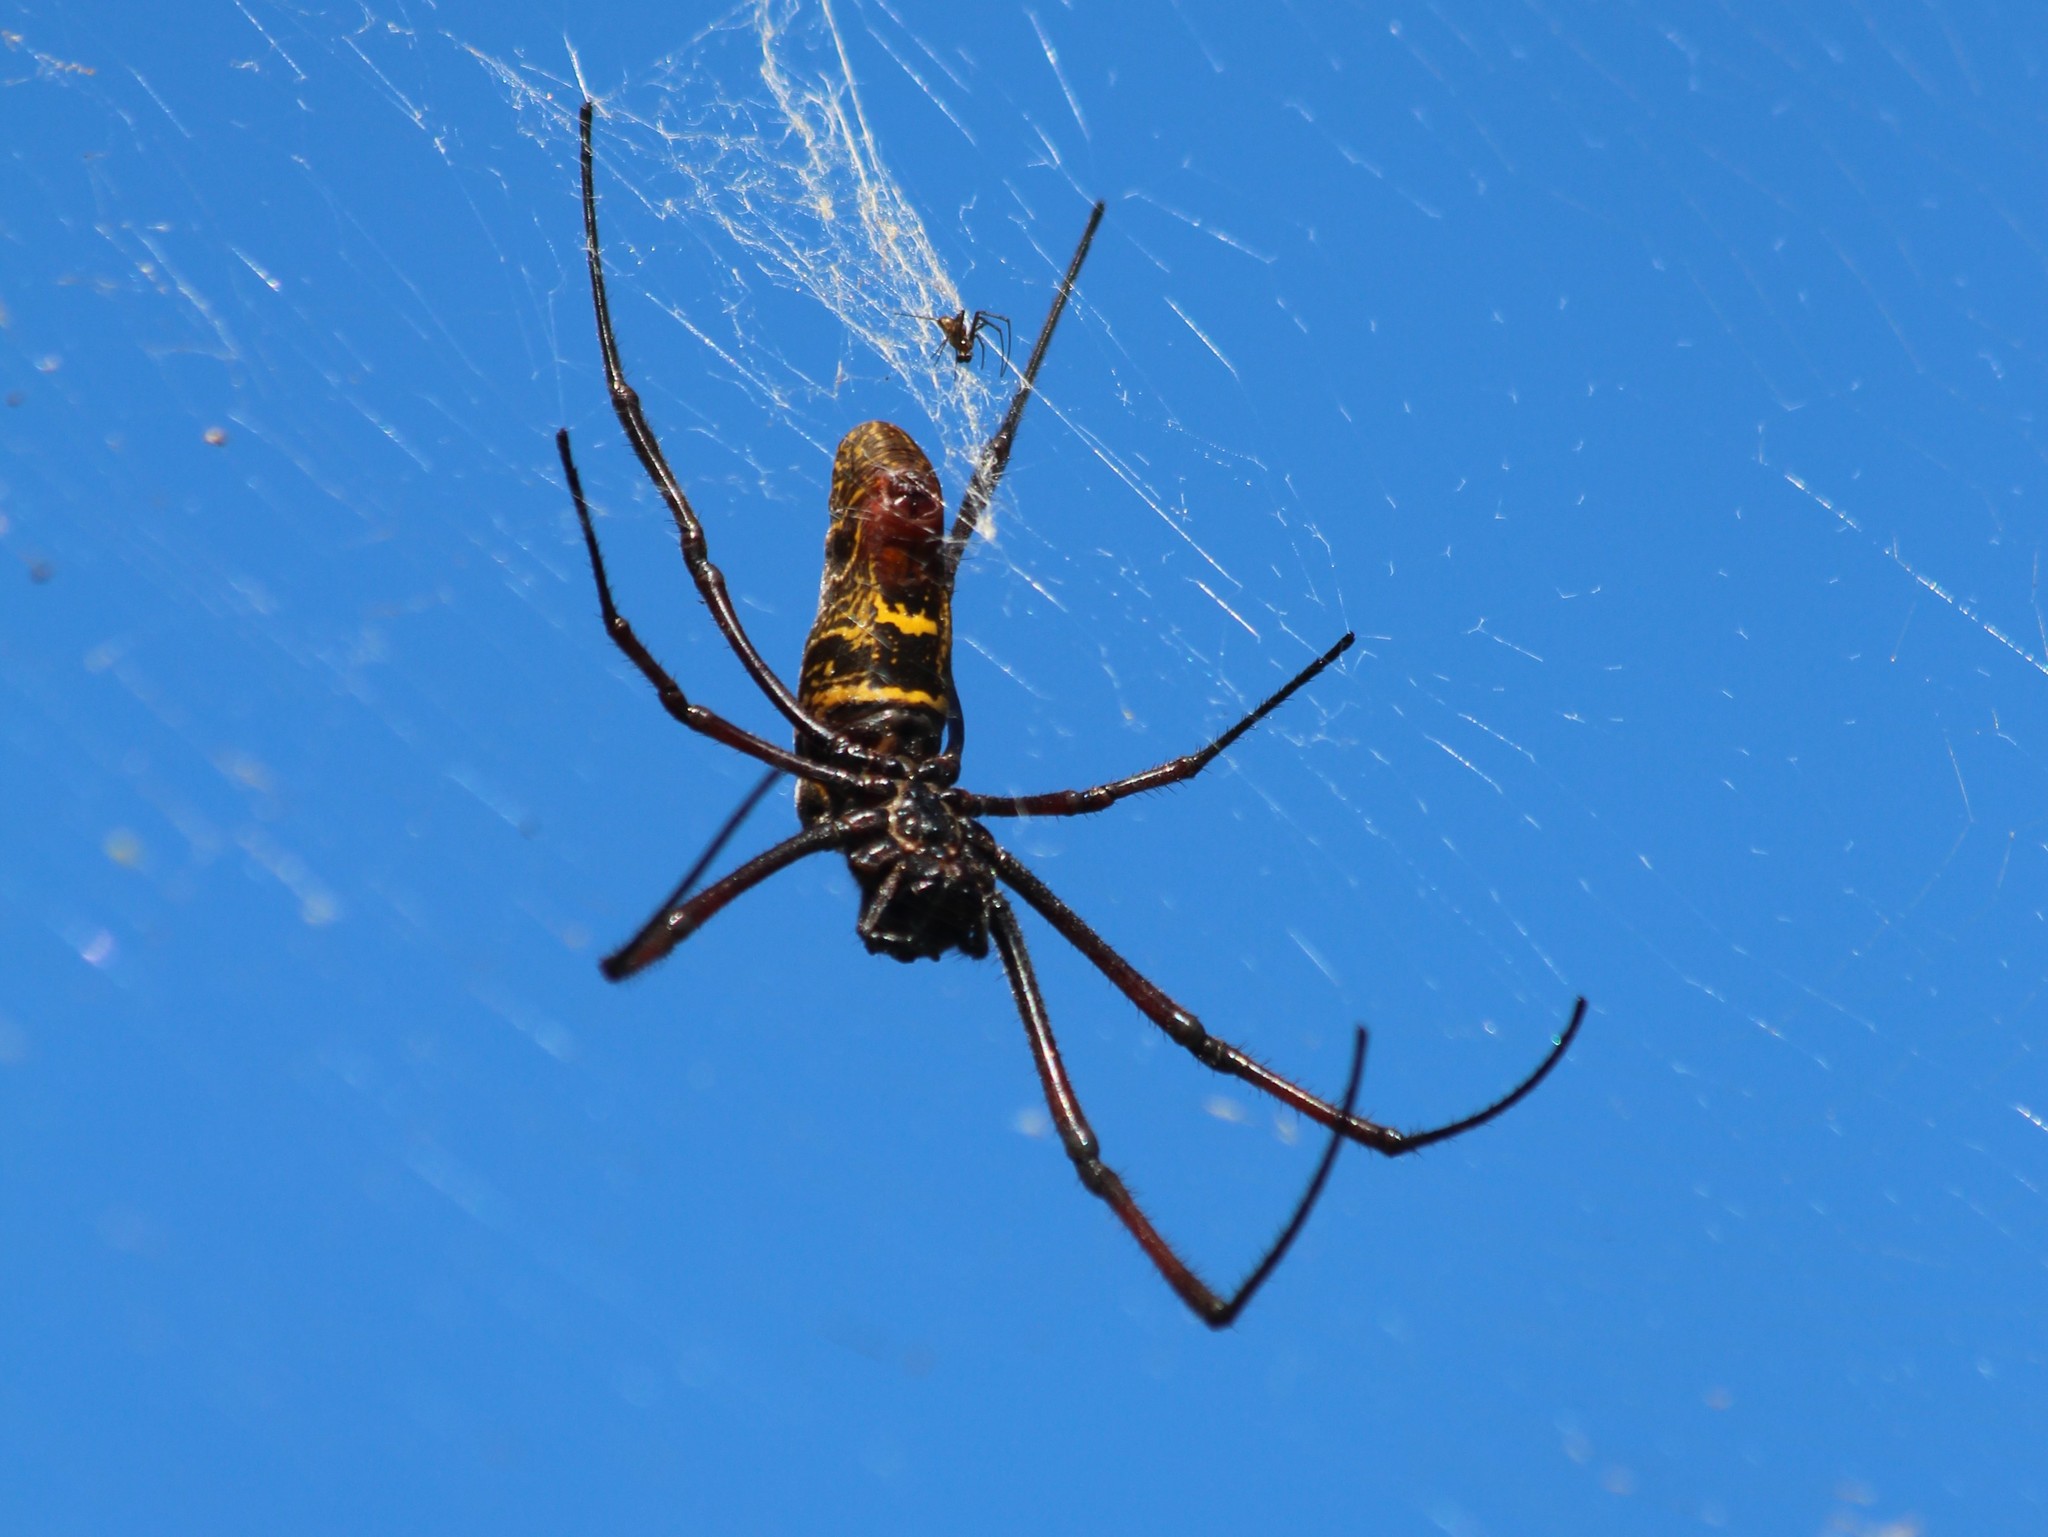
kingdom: Animalia
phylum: Arthropoda
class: Arachnida
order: Araneae
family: Araneidae
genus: Trichonephila
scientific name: Trichonephila inaurata
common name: Red-legged golden orb weaver
